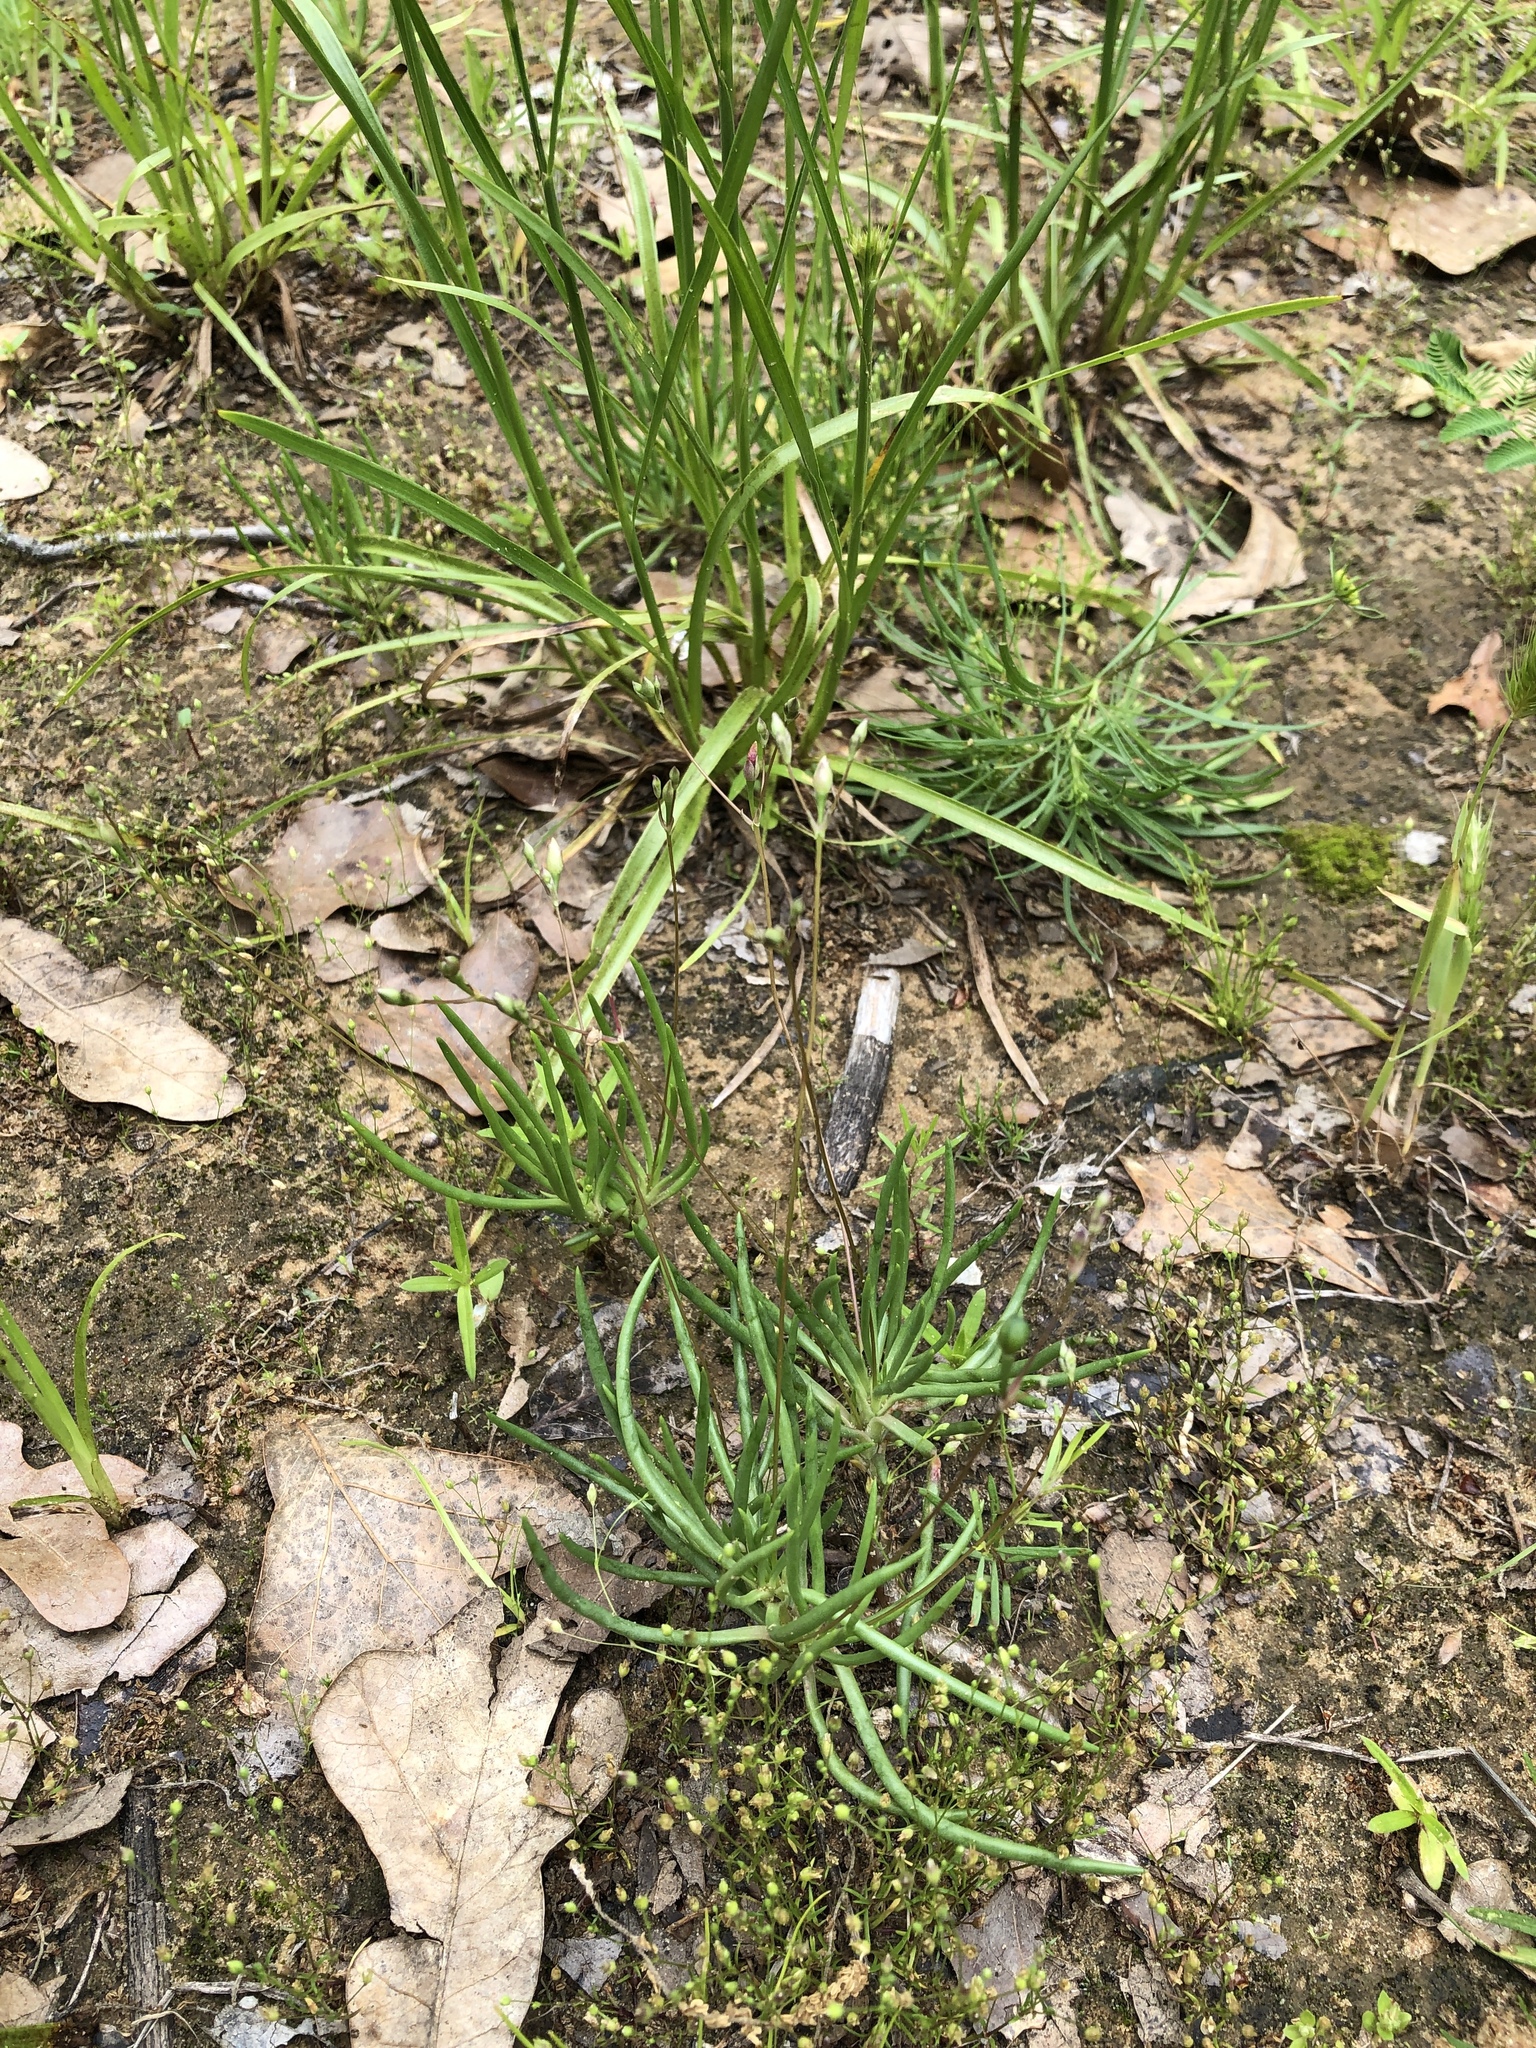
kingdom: Plantae
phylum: Tracheophyta
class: Magnoliopsida
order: Caryophyllales
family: Montiaceae
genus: Phemeranthus
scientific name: Phemeranthus parviflorus
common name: Sunbright
